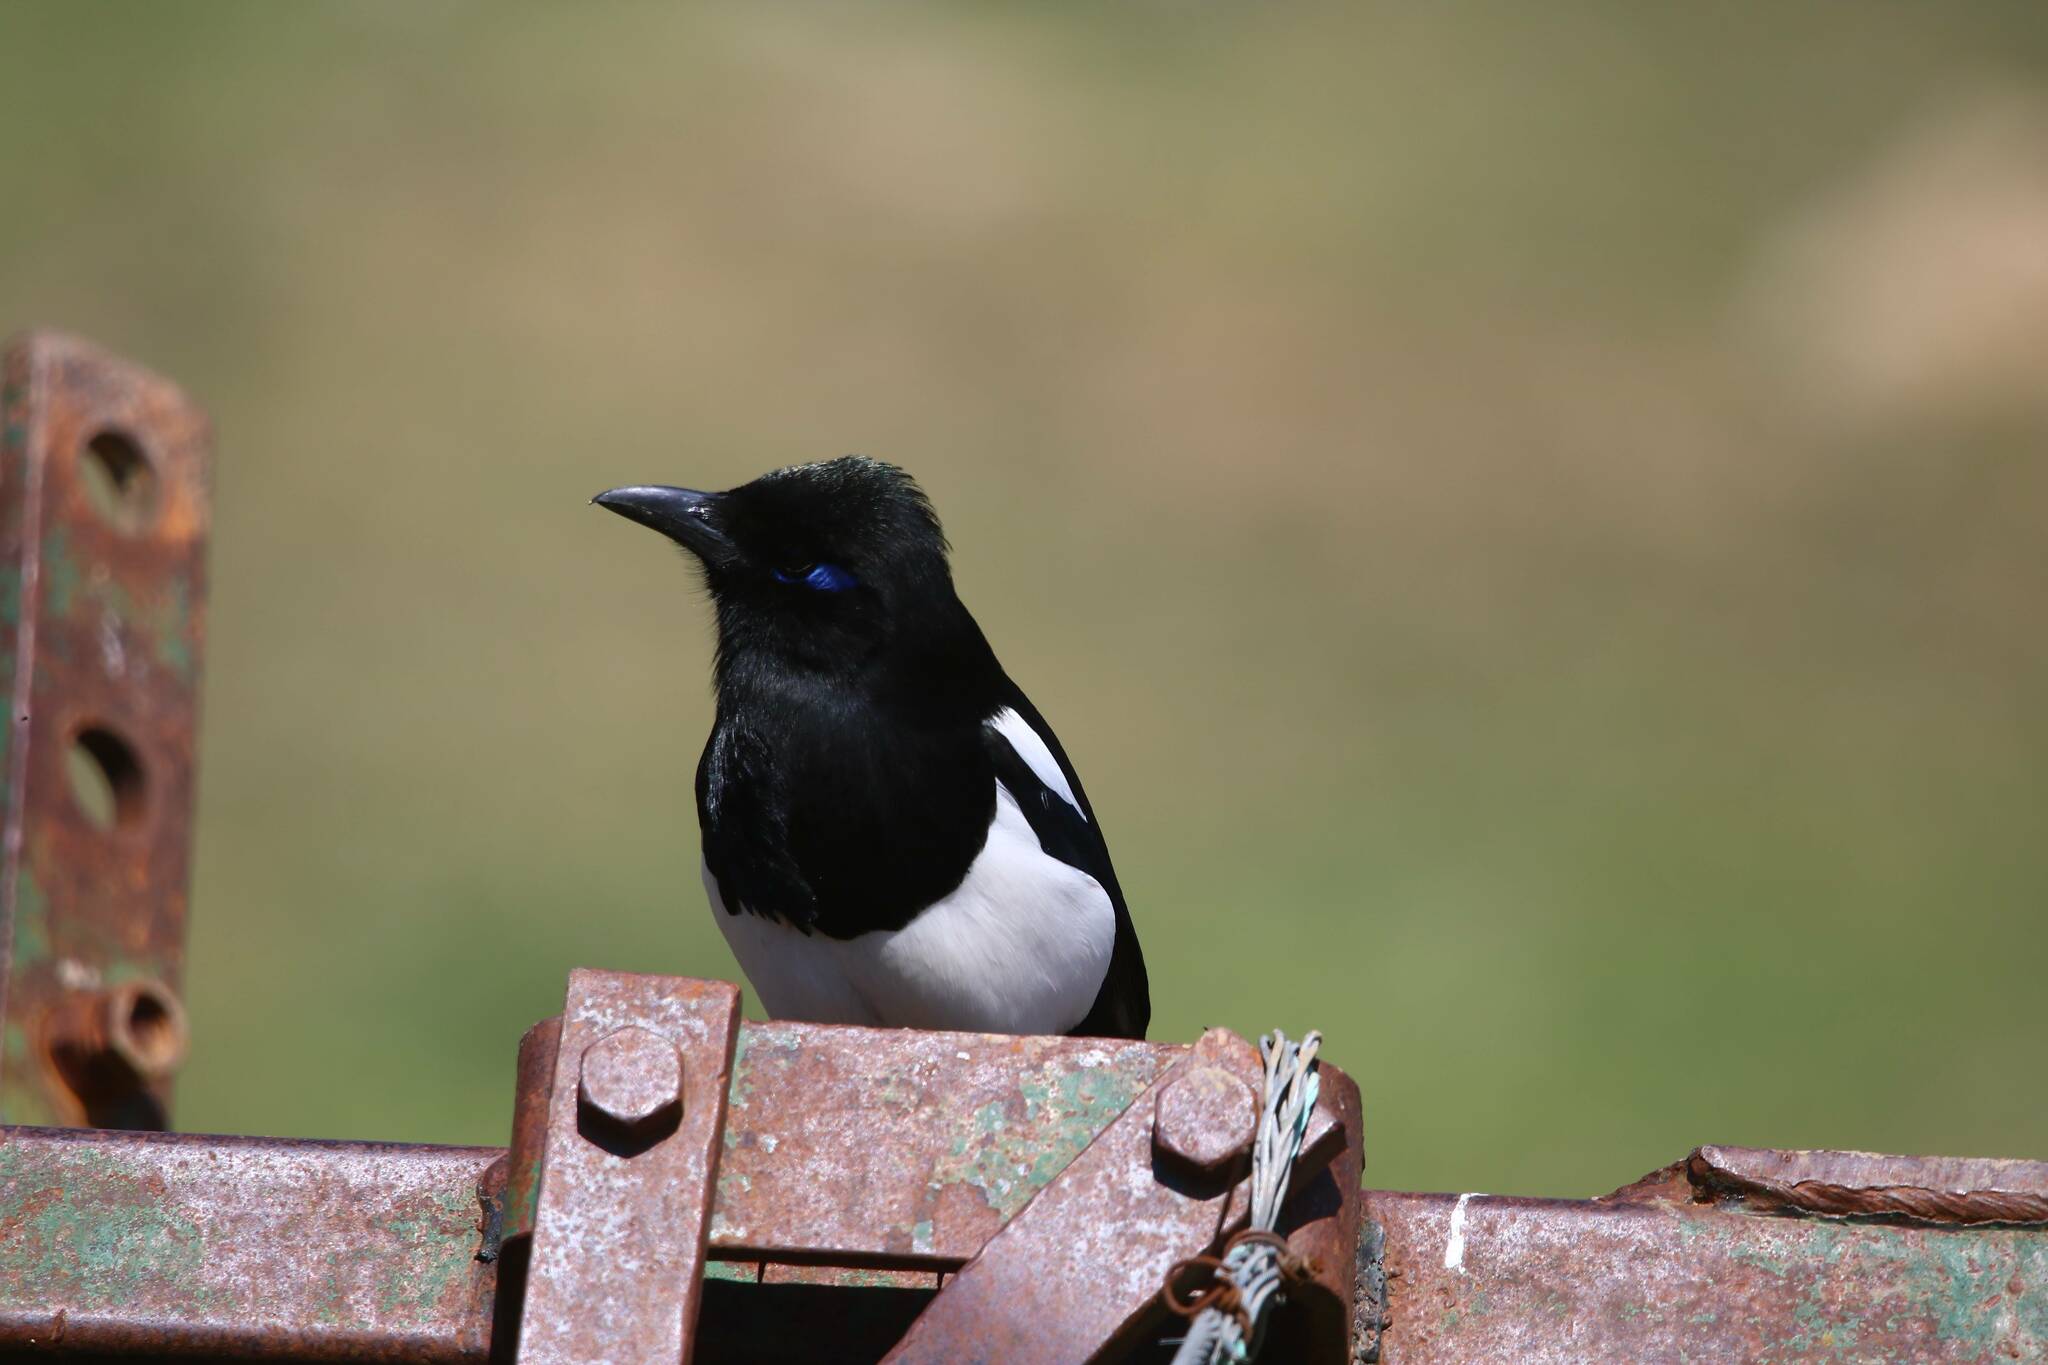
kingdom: Animalia
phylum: Chordata
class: Aves
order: Passeriformes
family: Corvidae
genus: Pica
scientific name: Pica mauritanica
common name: Maghreb magpie
